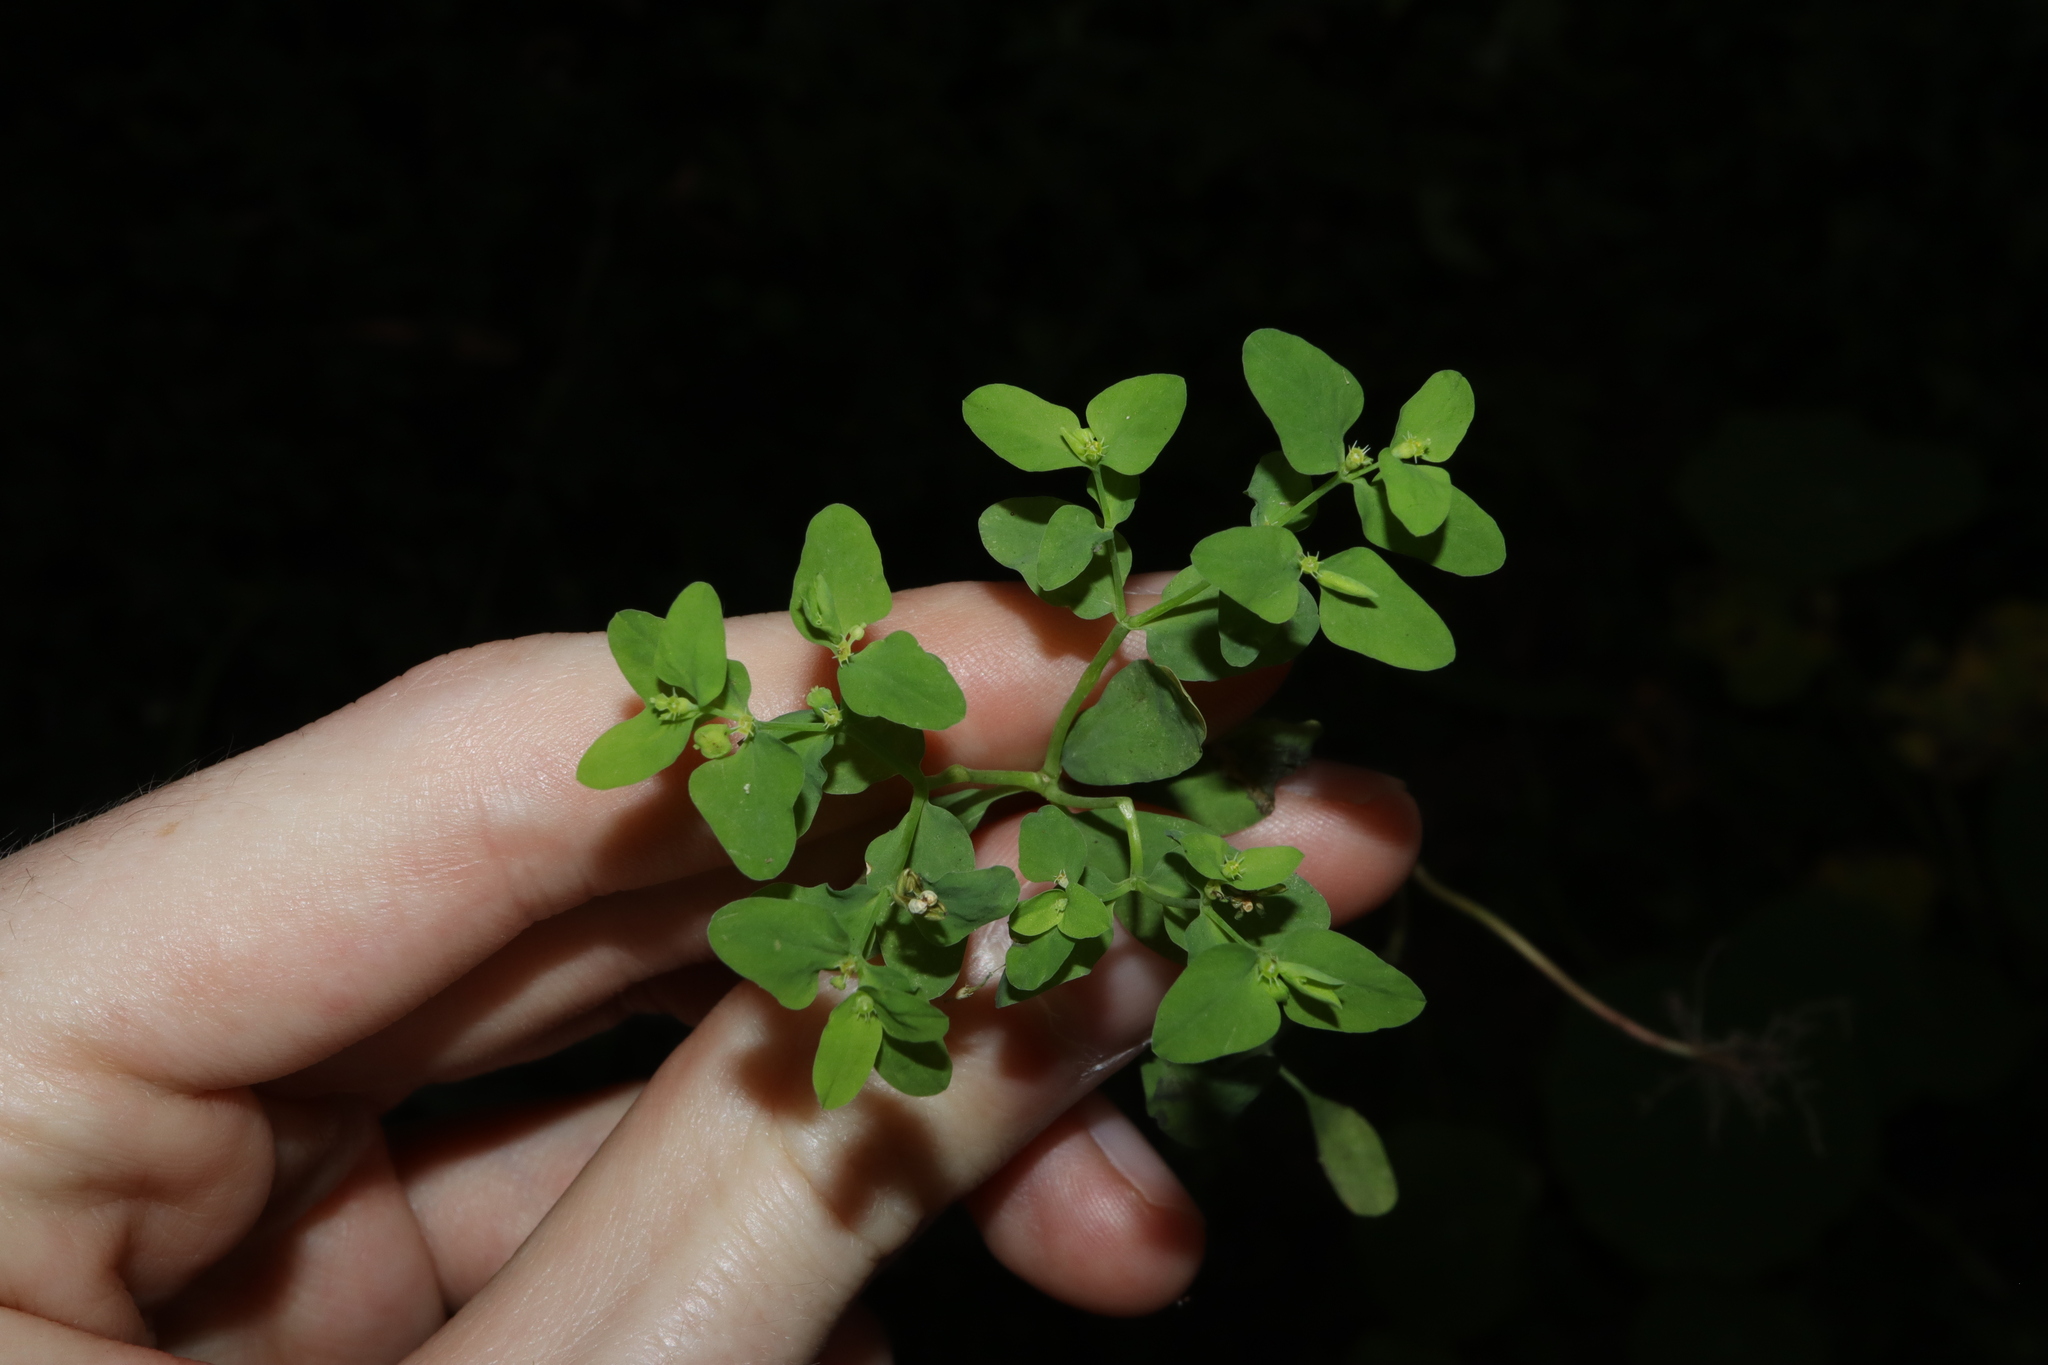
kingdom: Plantae
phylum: Tracheophyta
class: Magnoliopsida
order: Malpighiales
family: Euphorbiaceae
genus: Euphorbia
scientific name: Euphorbia peplus
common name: Petty spurge
